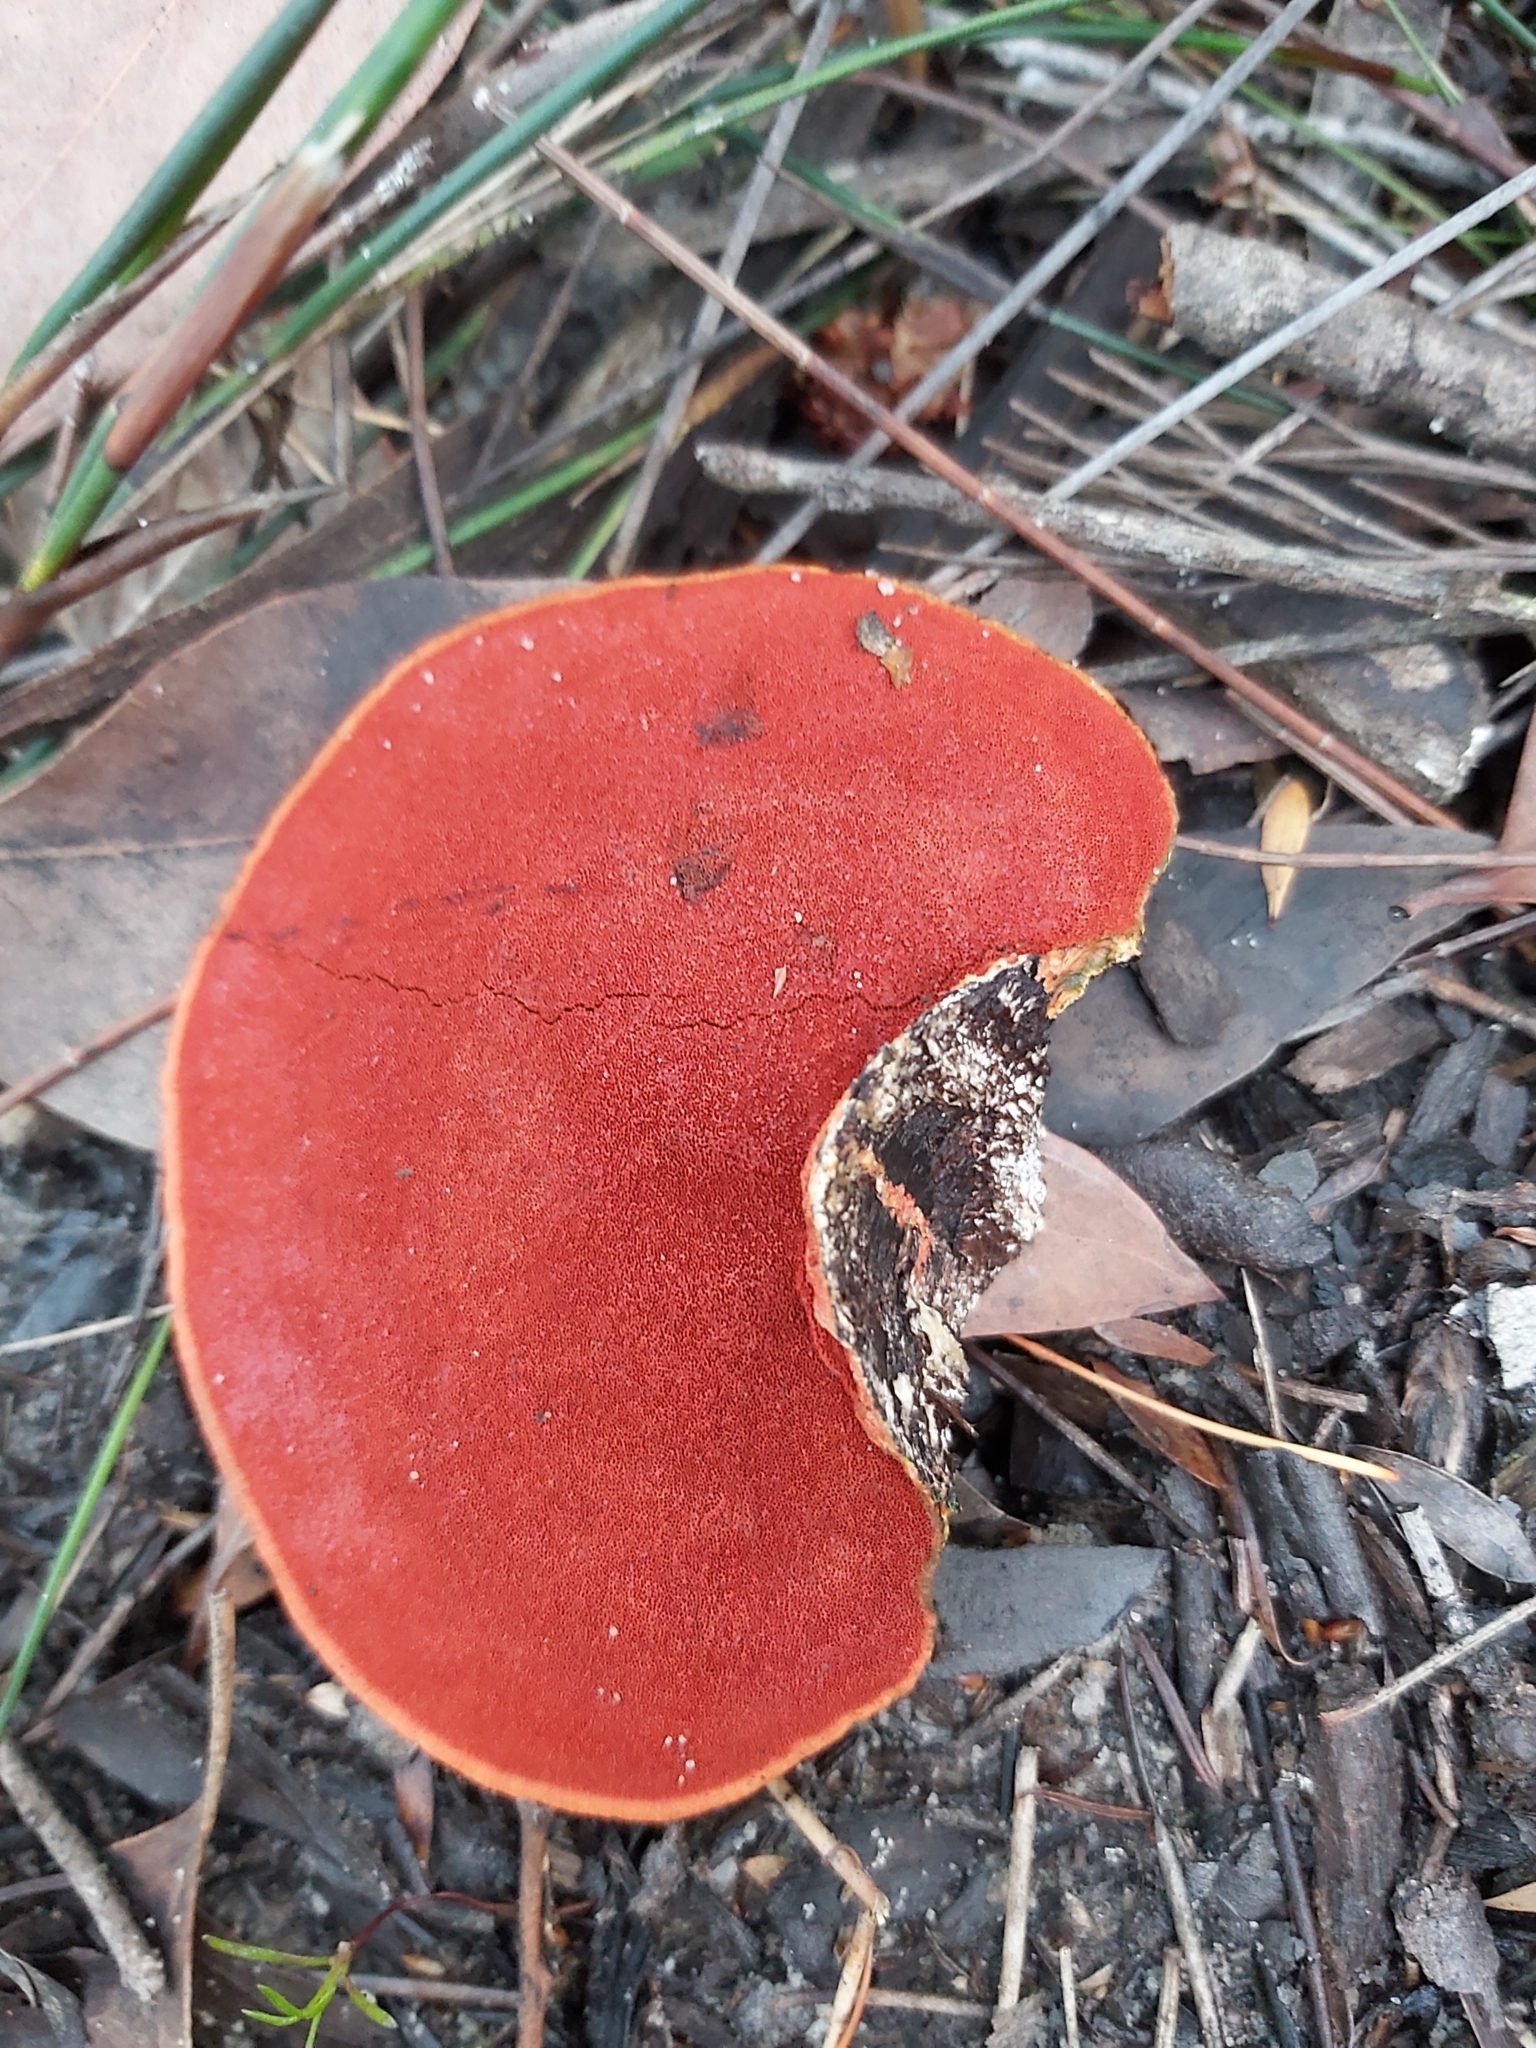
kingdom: Fungi
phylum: Basidiomycota
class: Agaricomycetes
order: Polyporales
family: Polyporaceae
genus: Trametes
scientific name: Trametes coccinea
